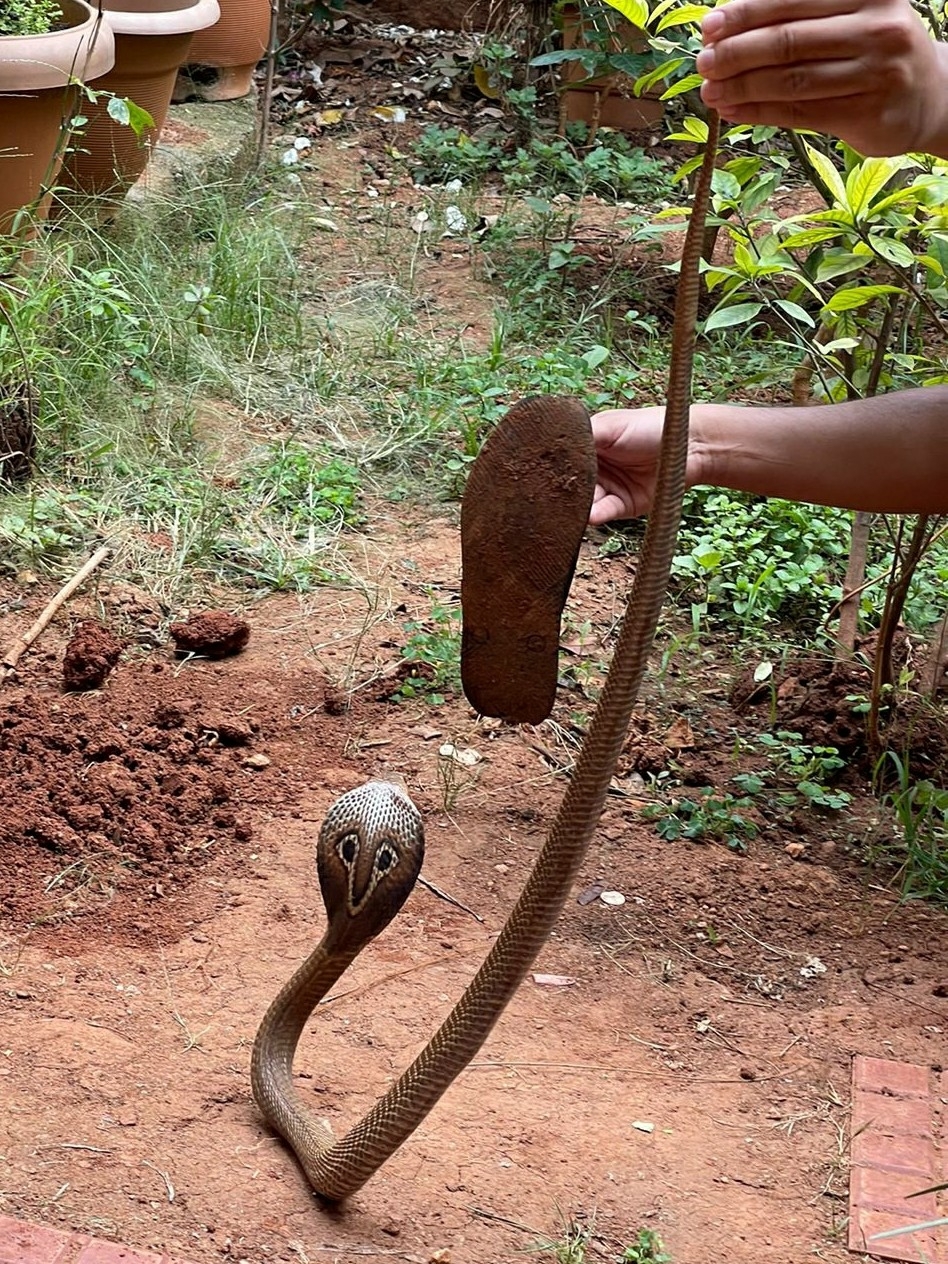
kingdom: Animalia
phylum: Chordata
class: Squamata
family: Elapidae
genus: Naja
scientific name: Naja naja
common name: Indian cobra
